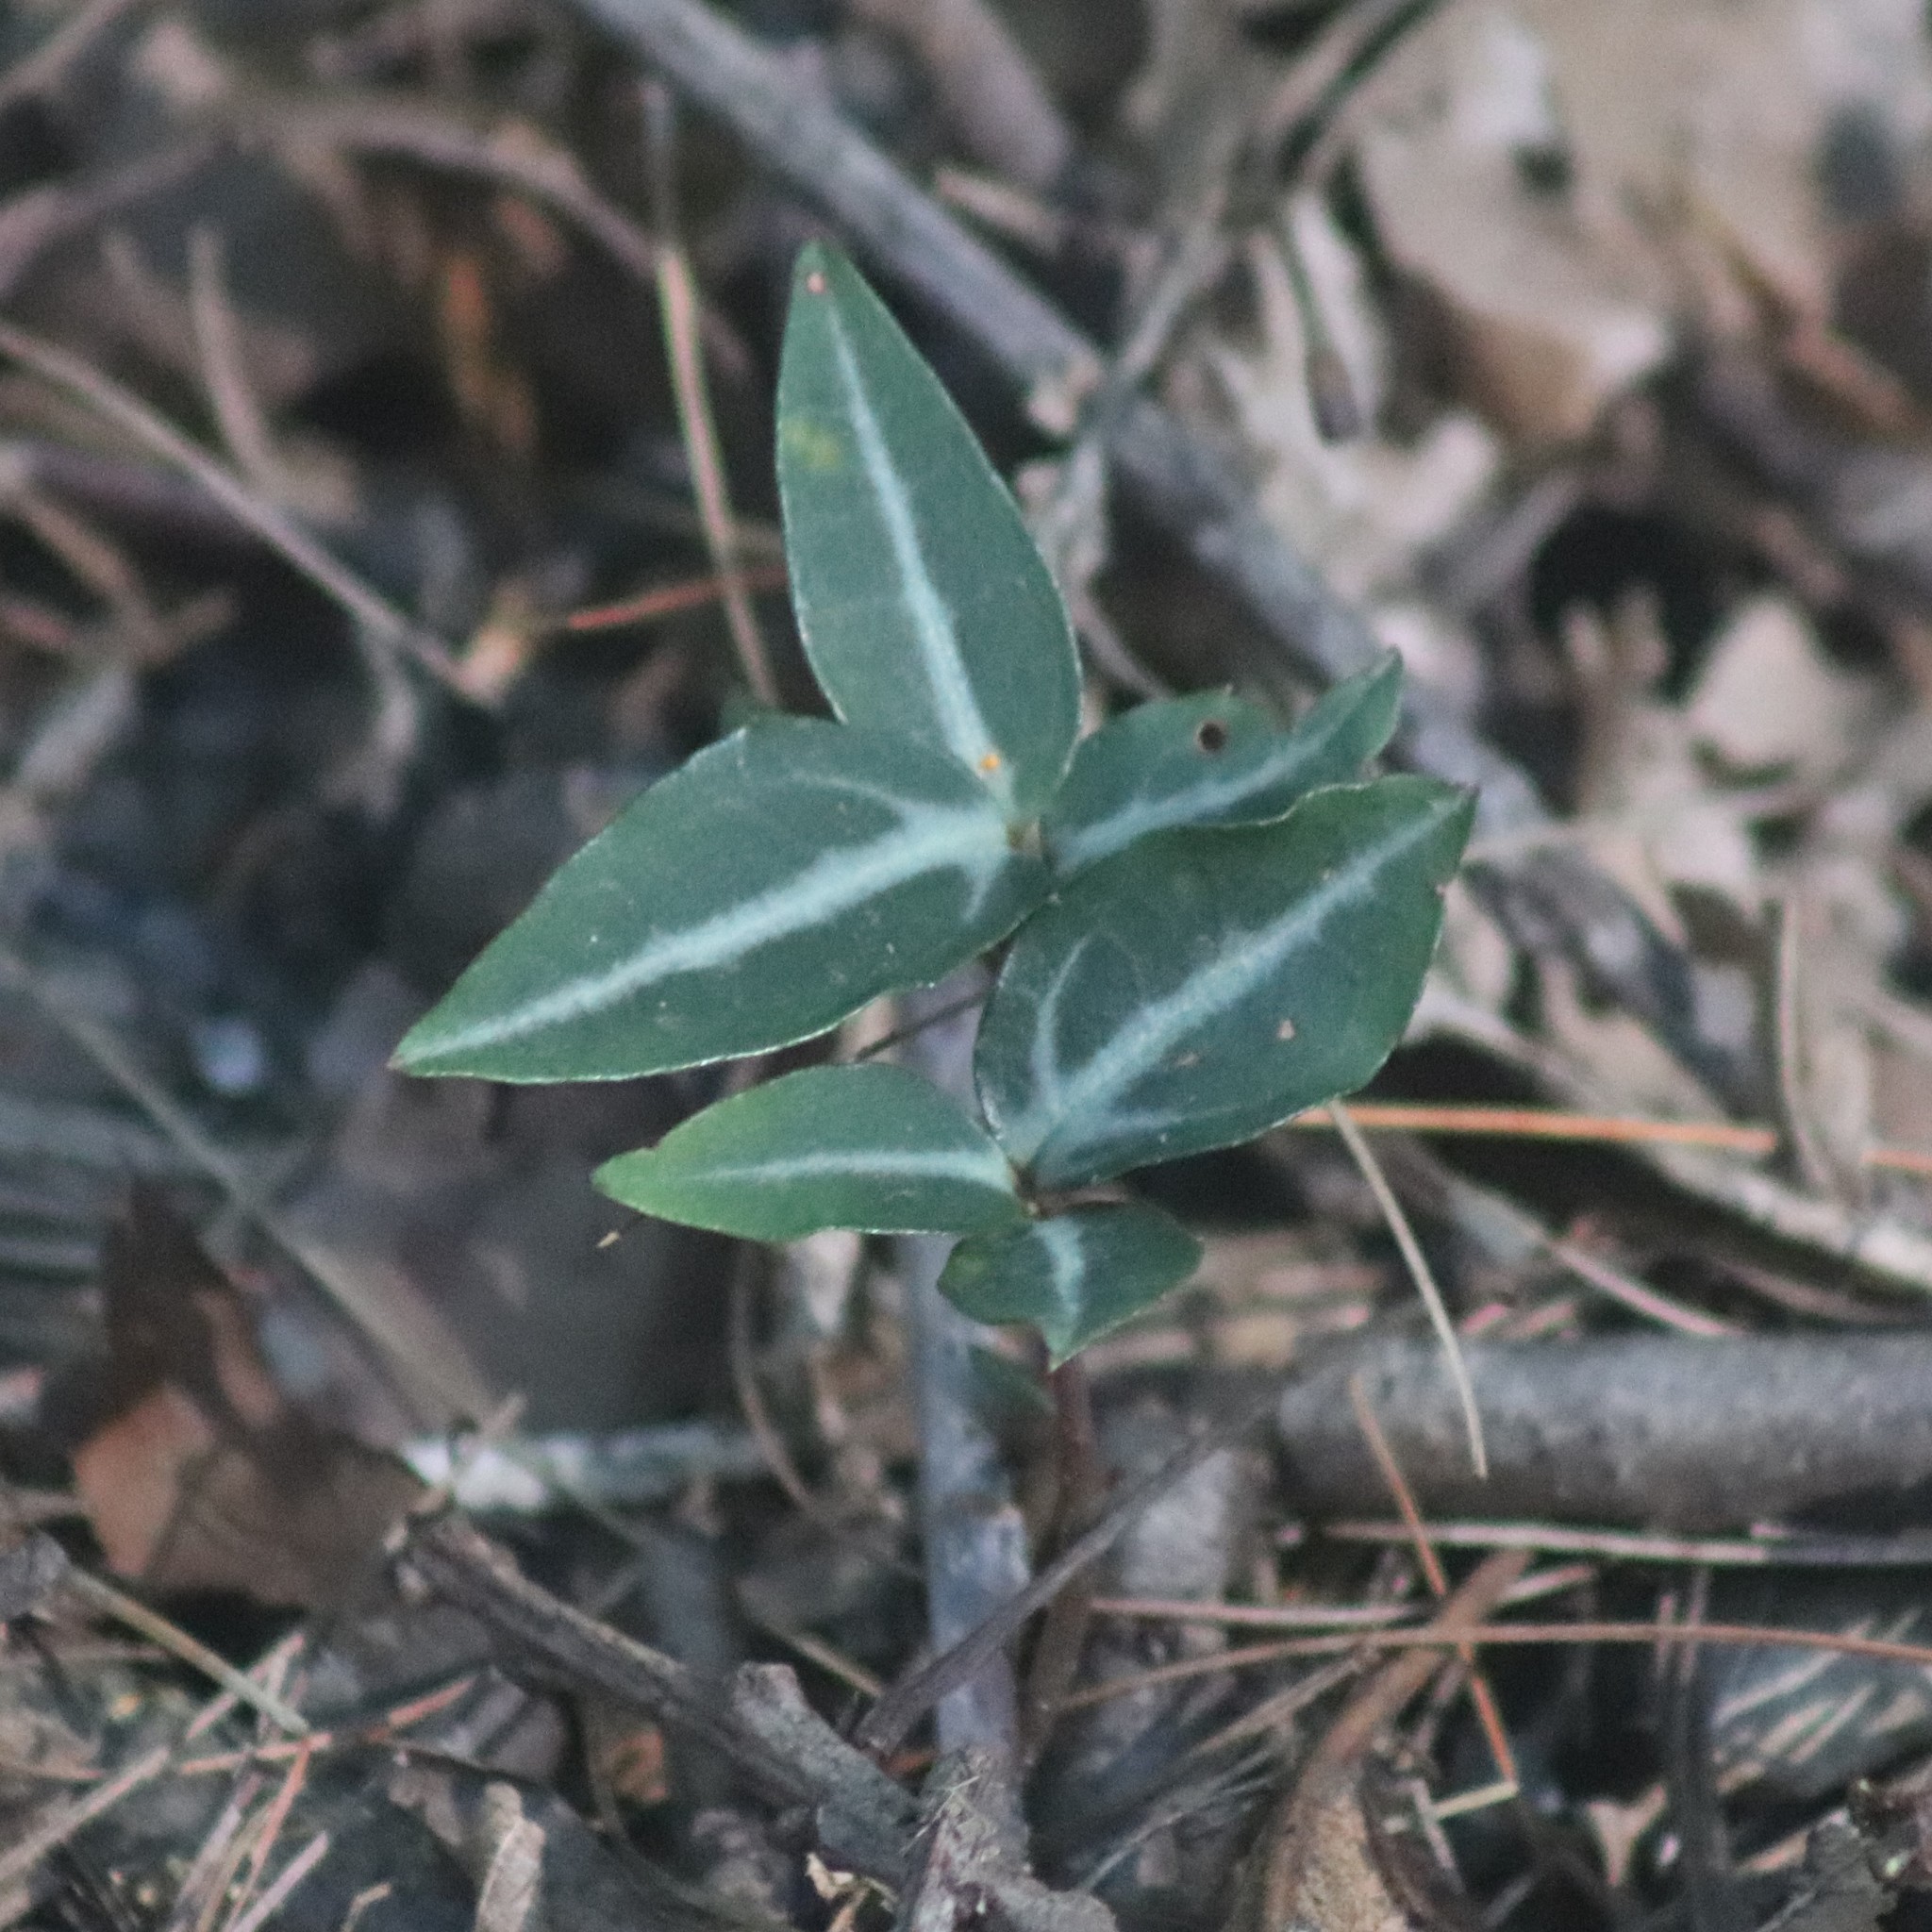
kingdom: Plantae
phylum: Tracheophyta
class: Magnoliopsida
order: Ericales
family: Ericaceae
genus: Chimaphila
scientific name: Chimaphila maculata
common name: Spotted pipsissewa
